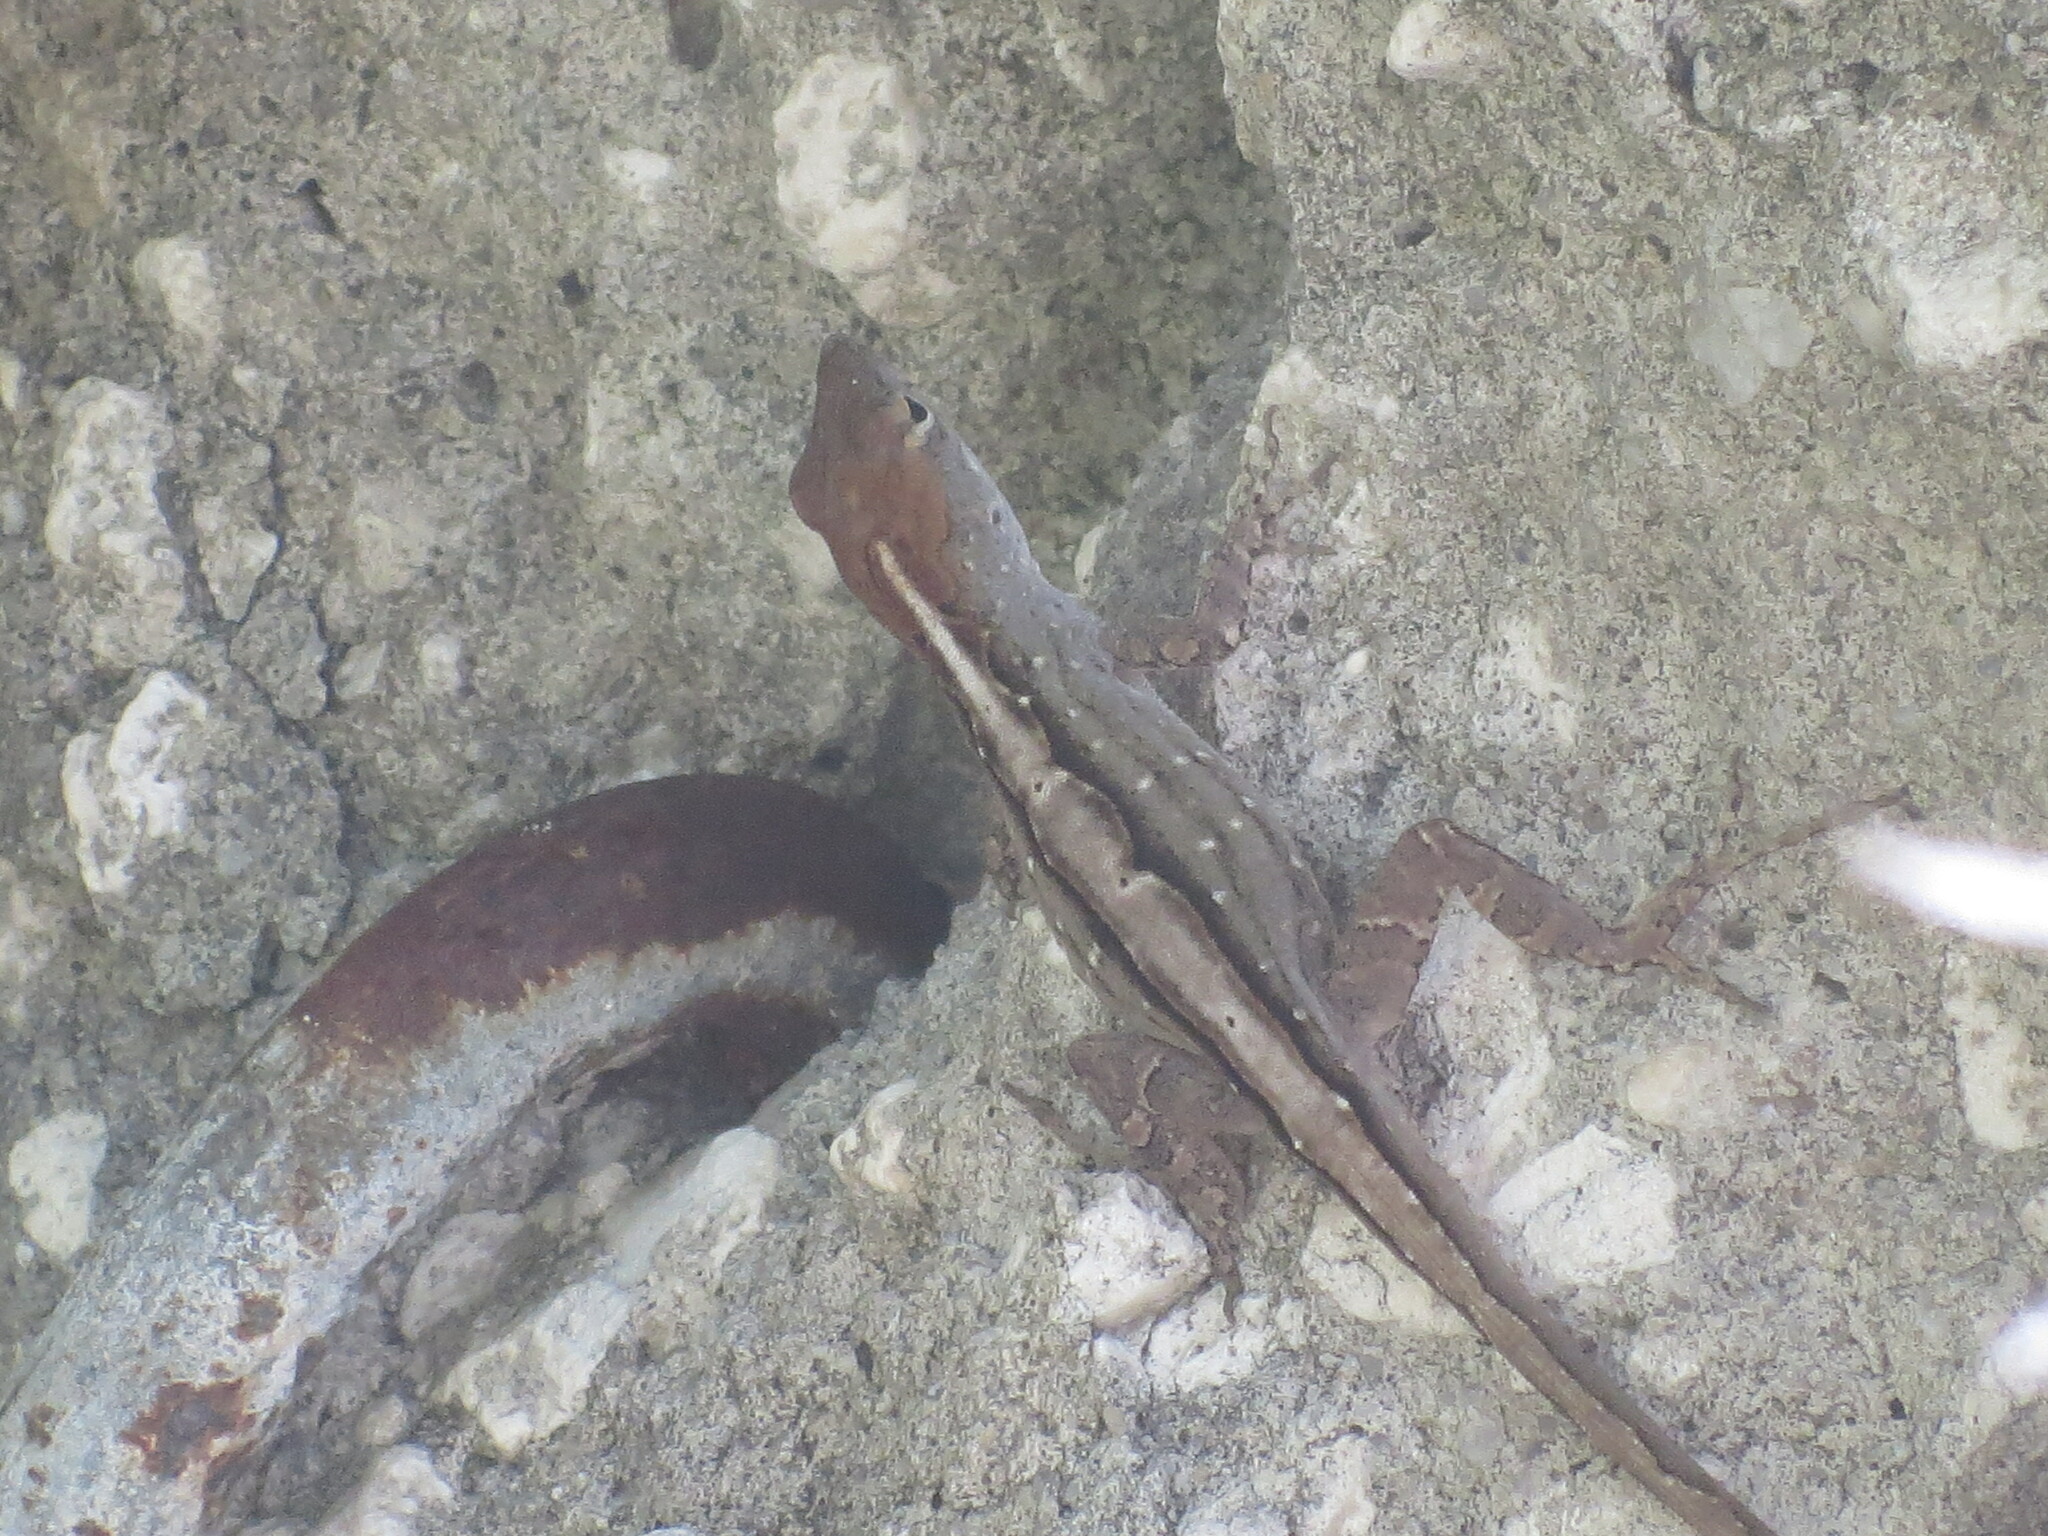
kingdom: Animalia
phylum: Chordata
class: Squamata
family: Dactyloidae
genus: Anolis
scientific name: Anolis sagrei
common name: Brown anole
